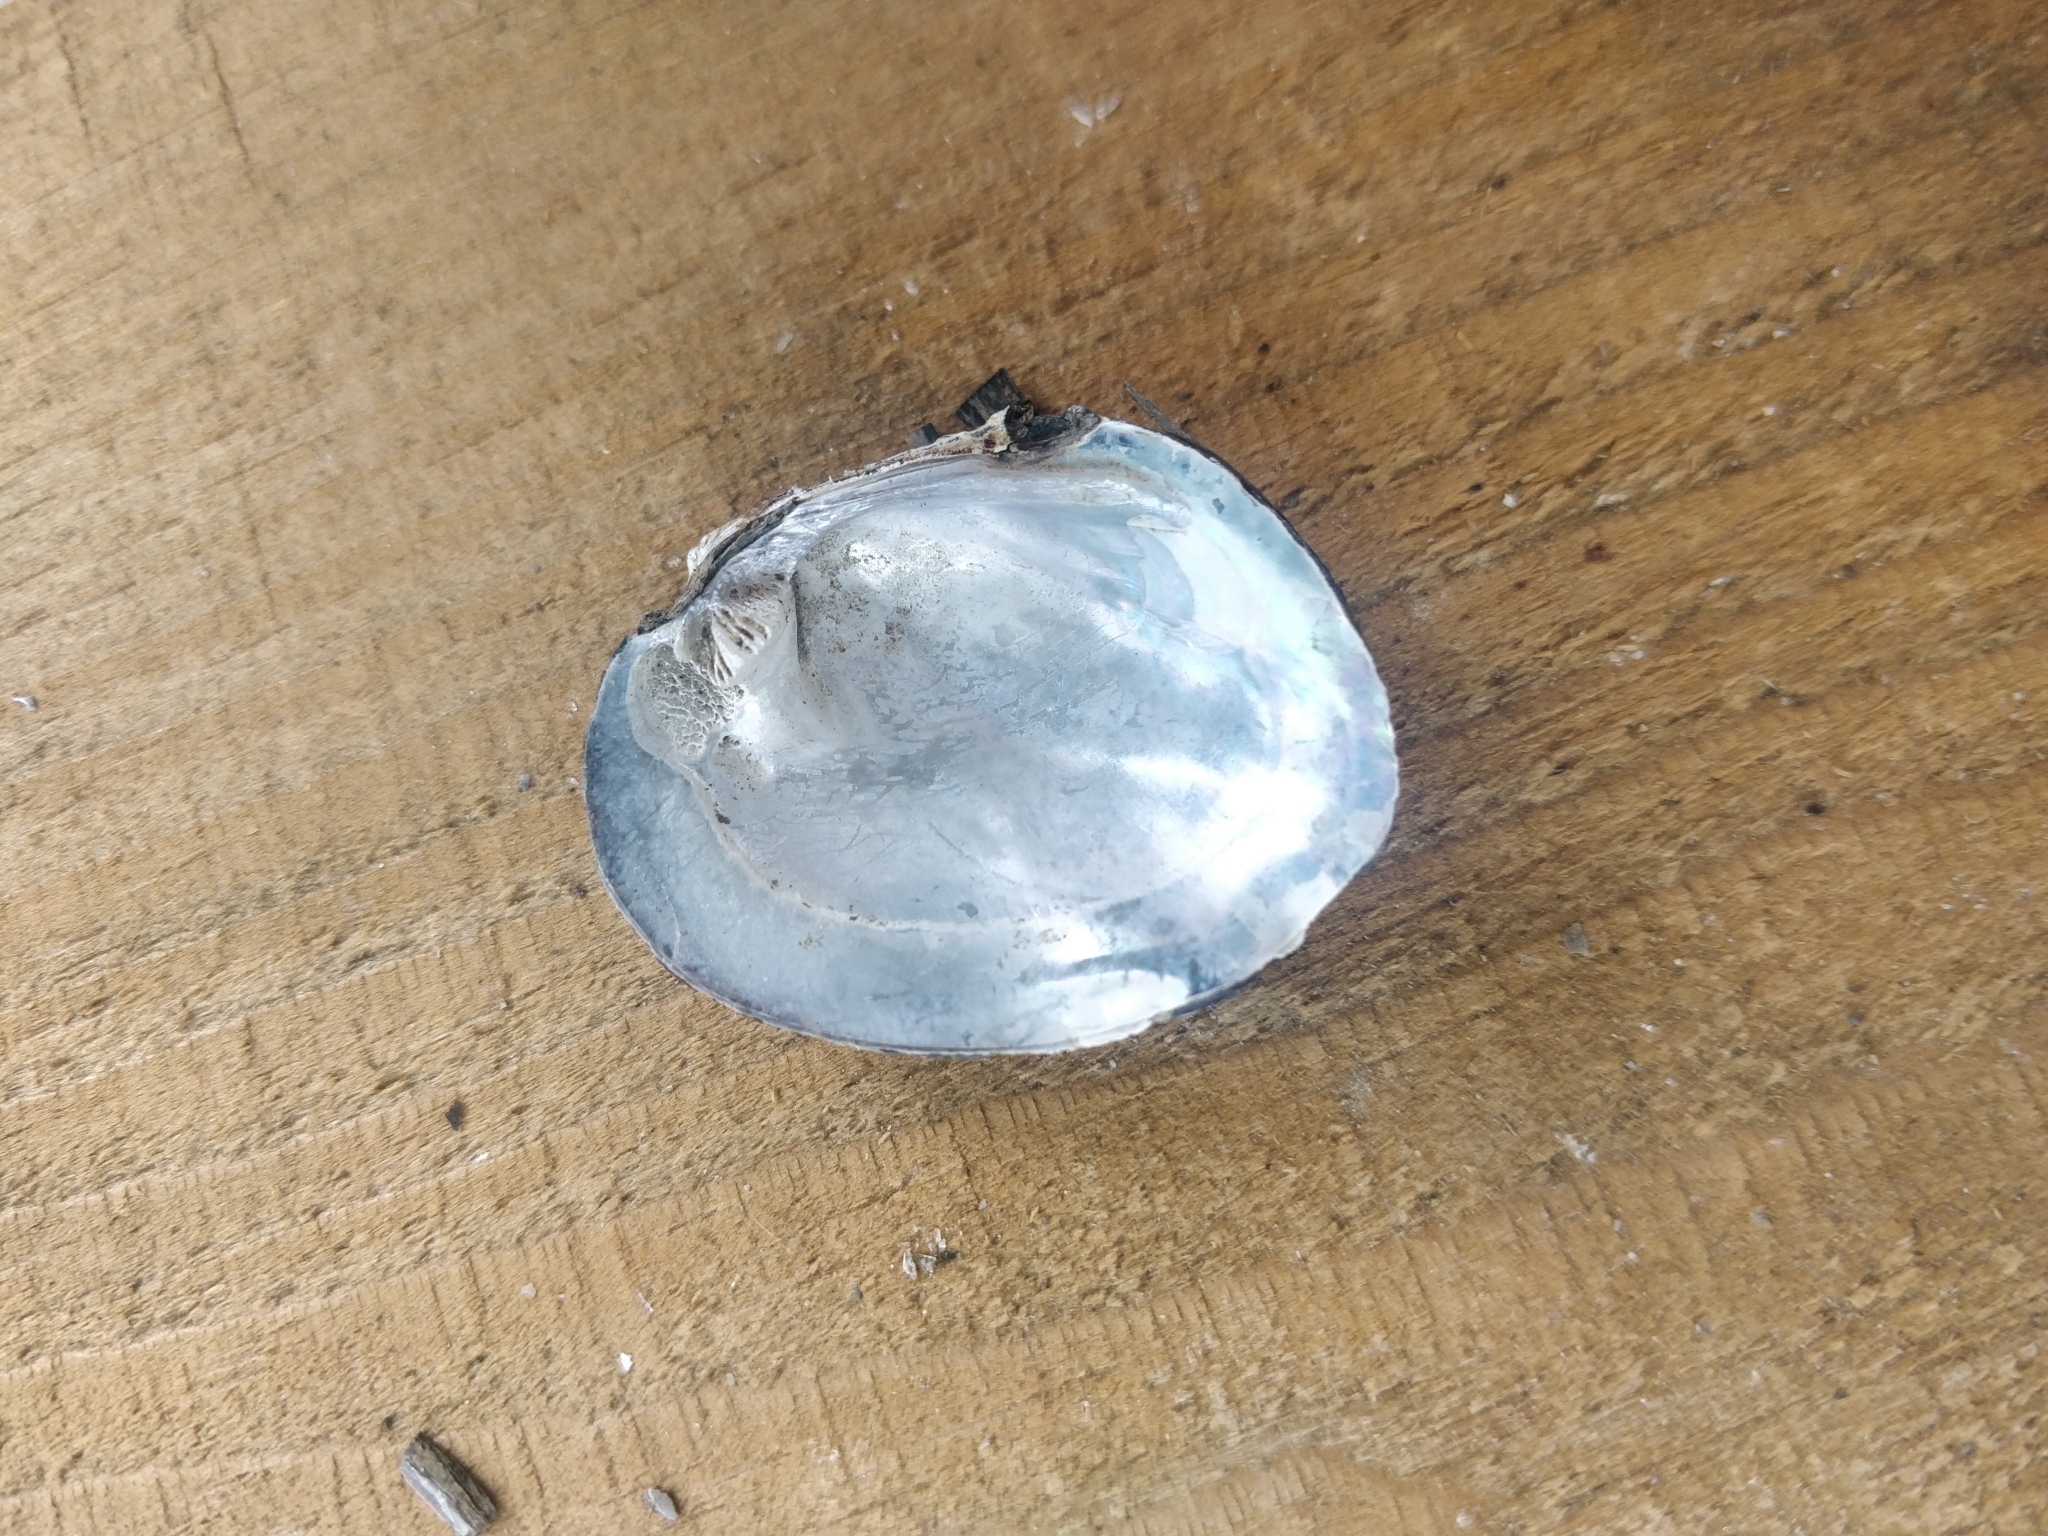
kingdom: Animalia
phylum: Mollusca
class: Bivalvia
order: Unionida
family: Unionidae
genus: Amblema
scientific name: Amblema plicata
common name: Threeridge
